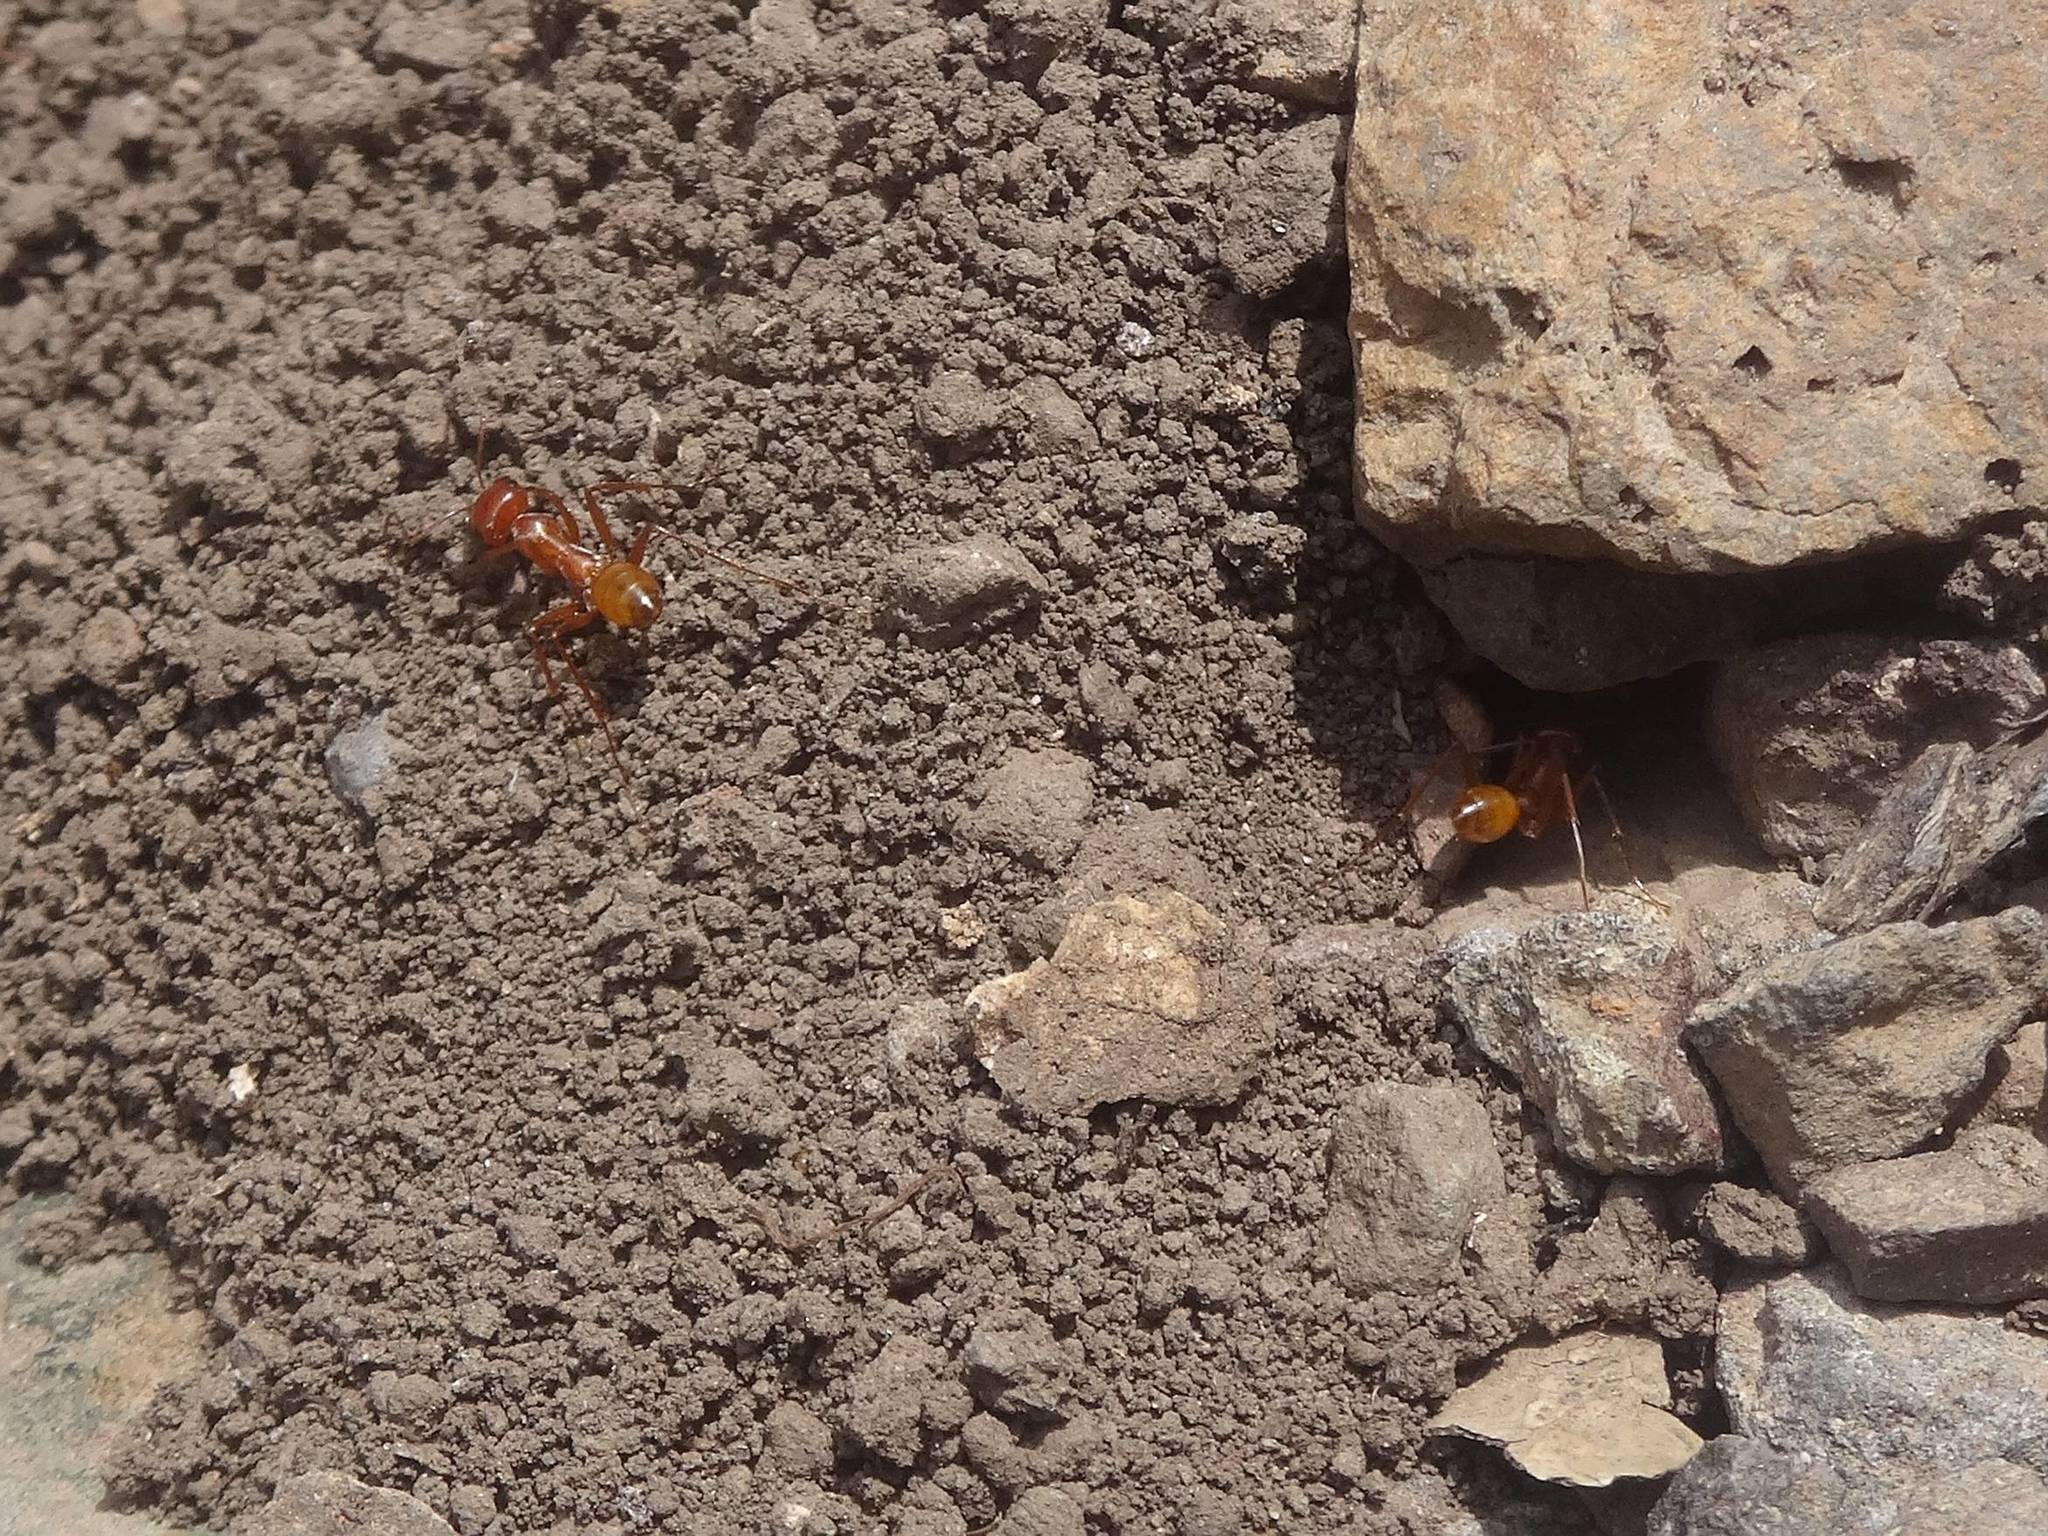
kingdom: Animalia
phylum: Arthropoda
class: Insecta
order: Hymenoptera
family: Formicidae
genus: Cataglyphis
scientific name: Cataglyphis lividus
